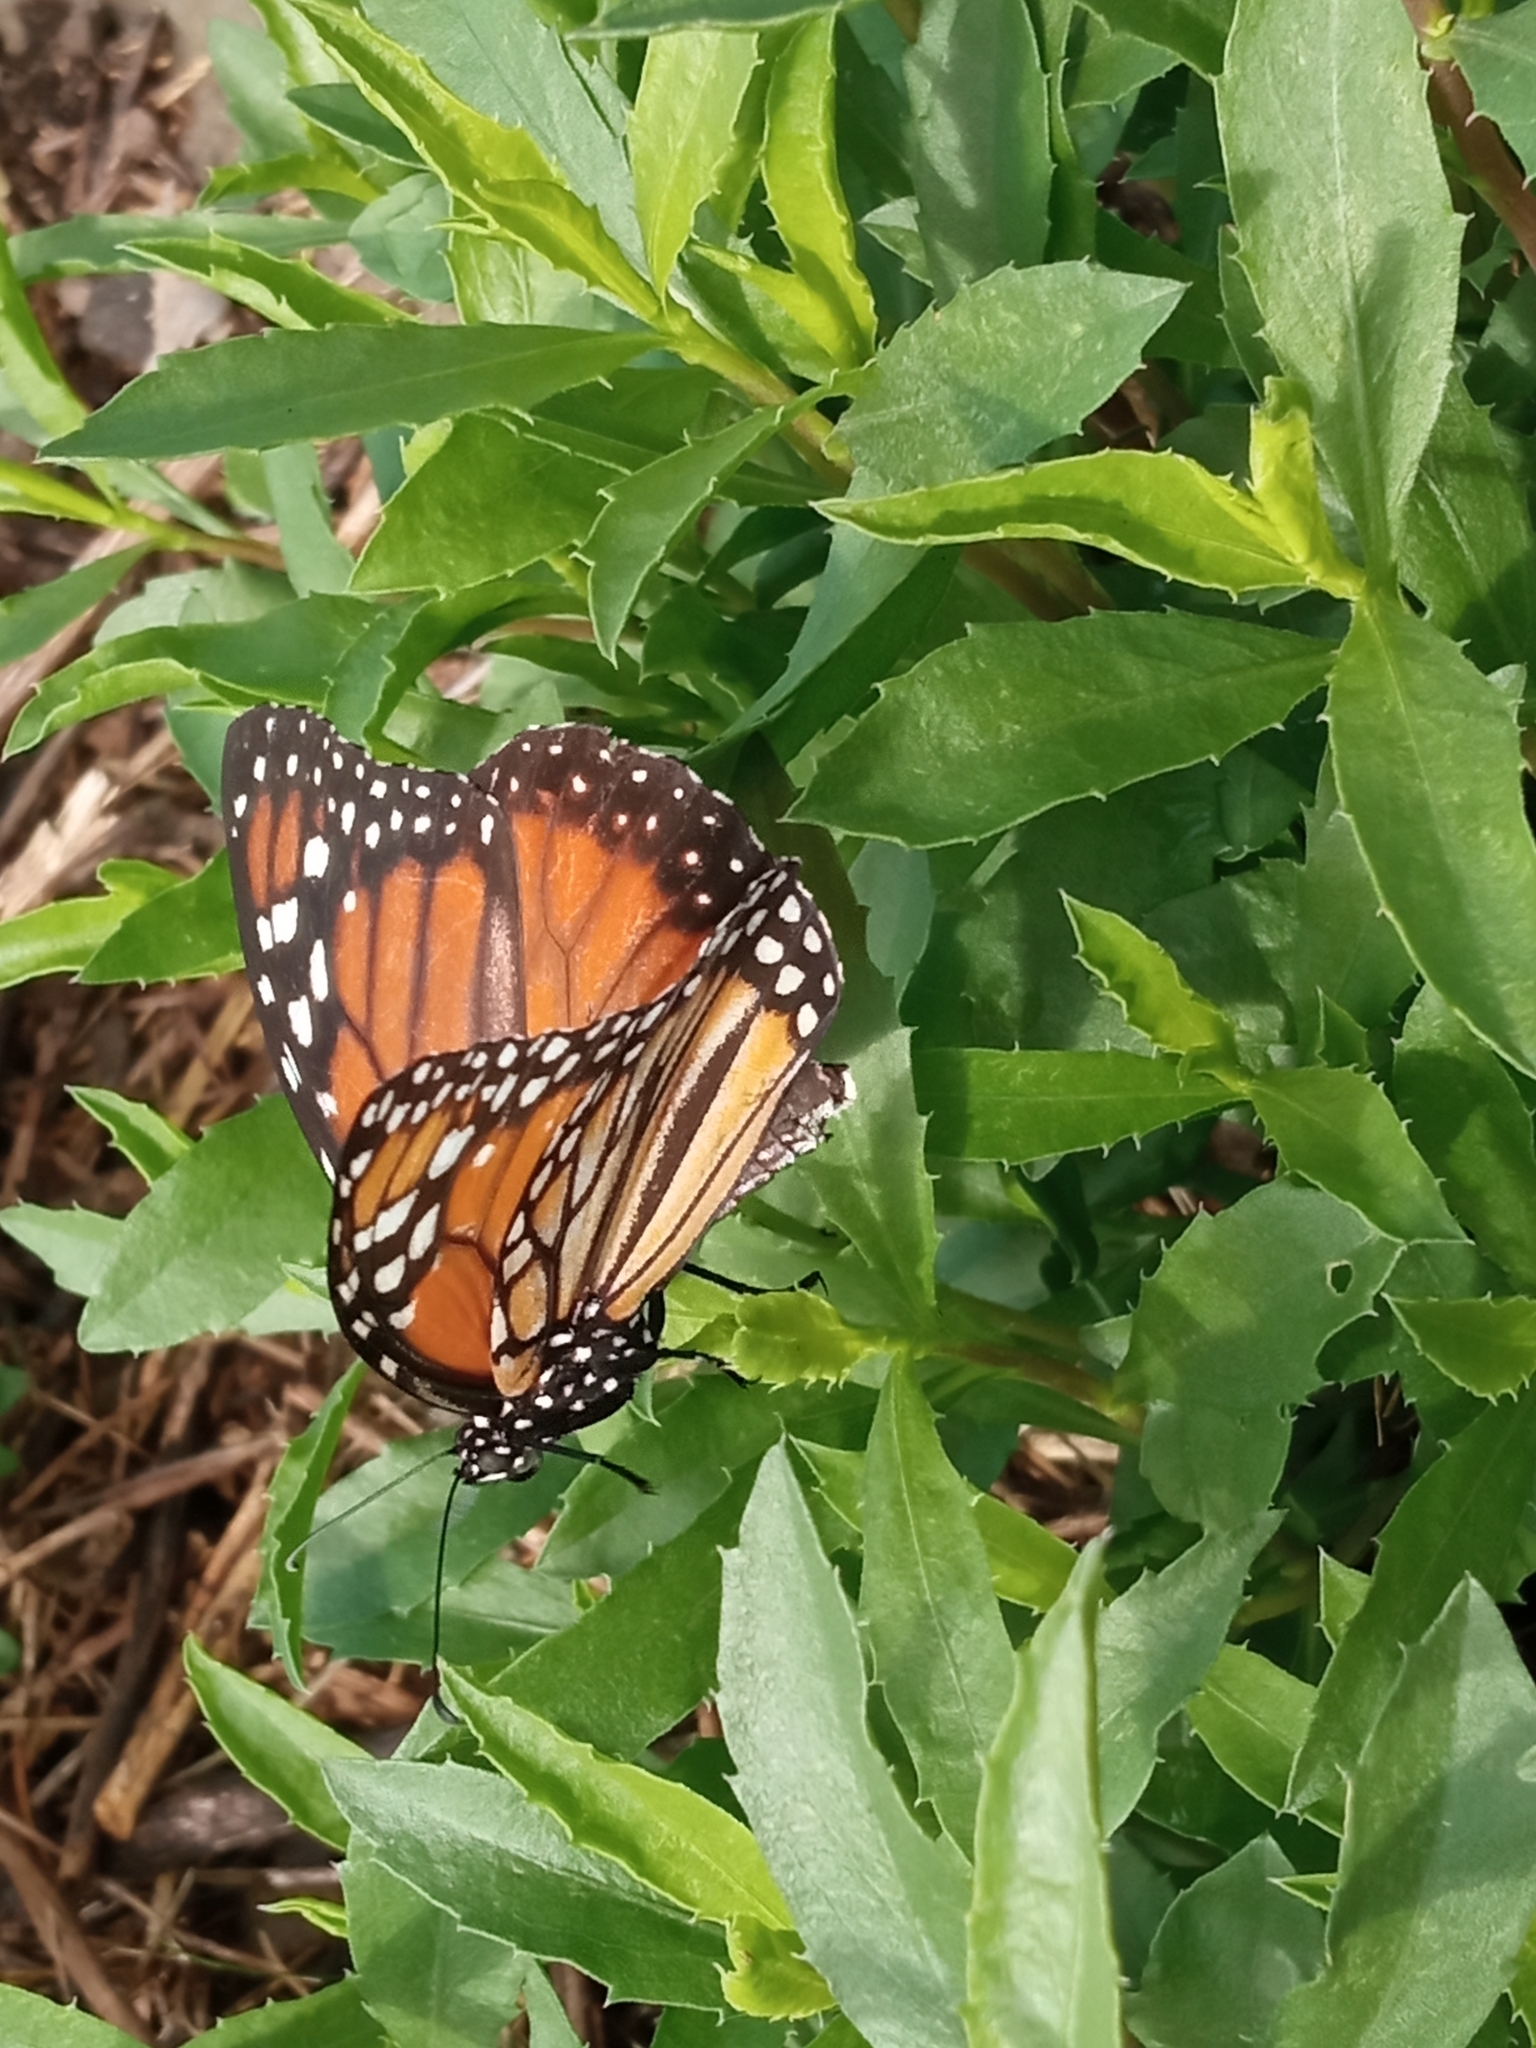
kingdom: Animalia
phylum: Arthropoda
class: Insecta
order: Lepidoptera
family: Nymphalidae
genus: Danaus
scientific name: Danaus erippus
